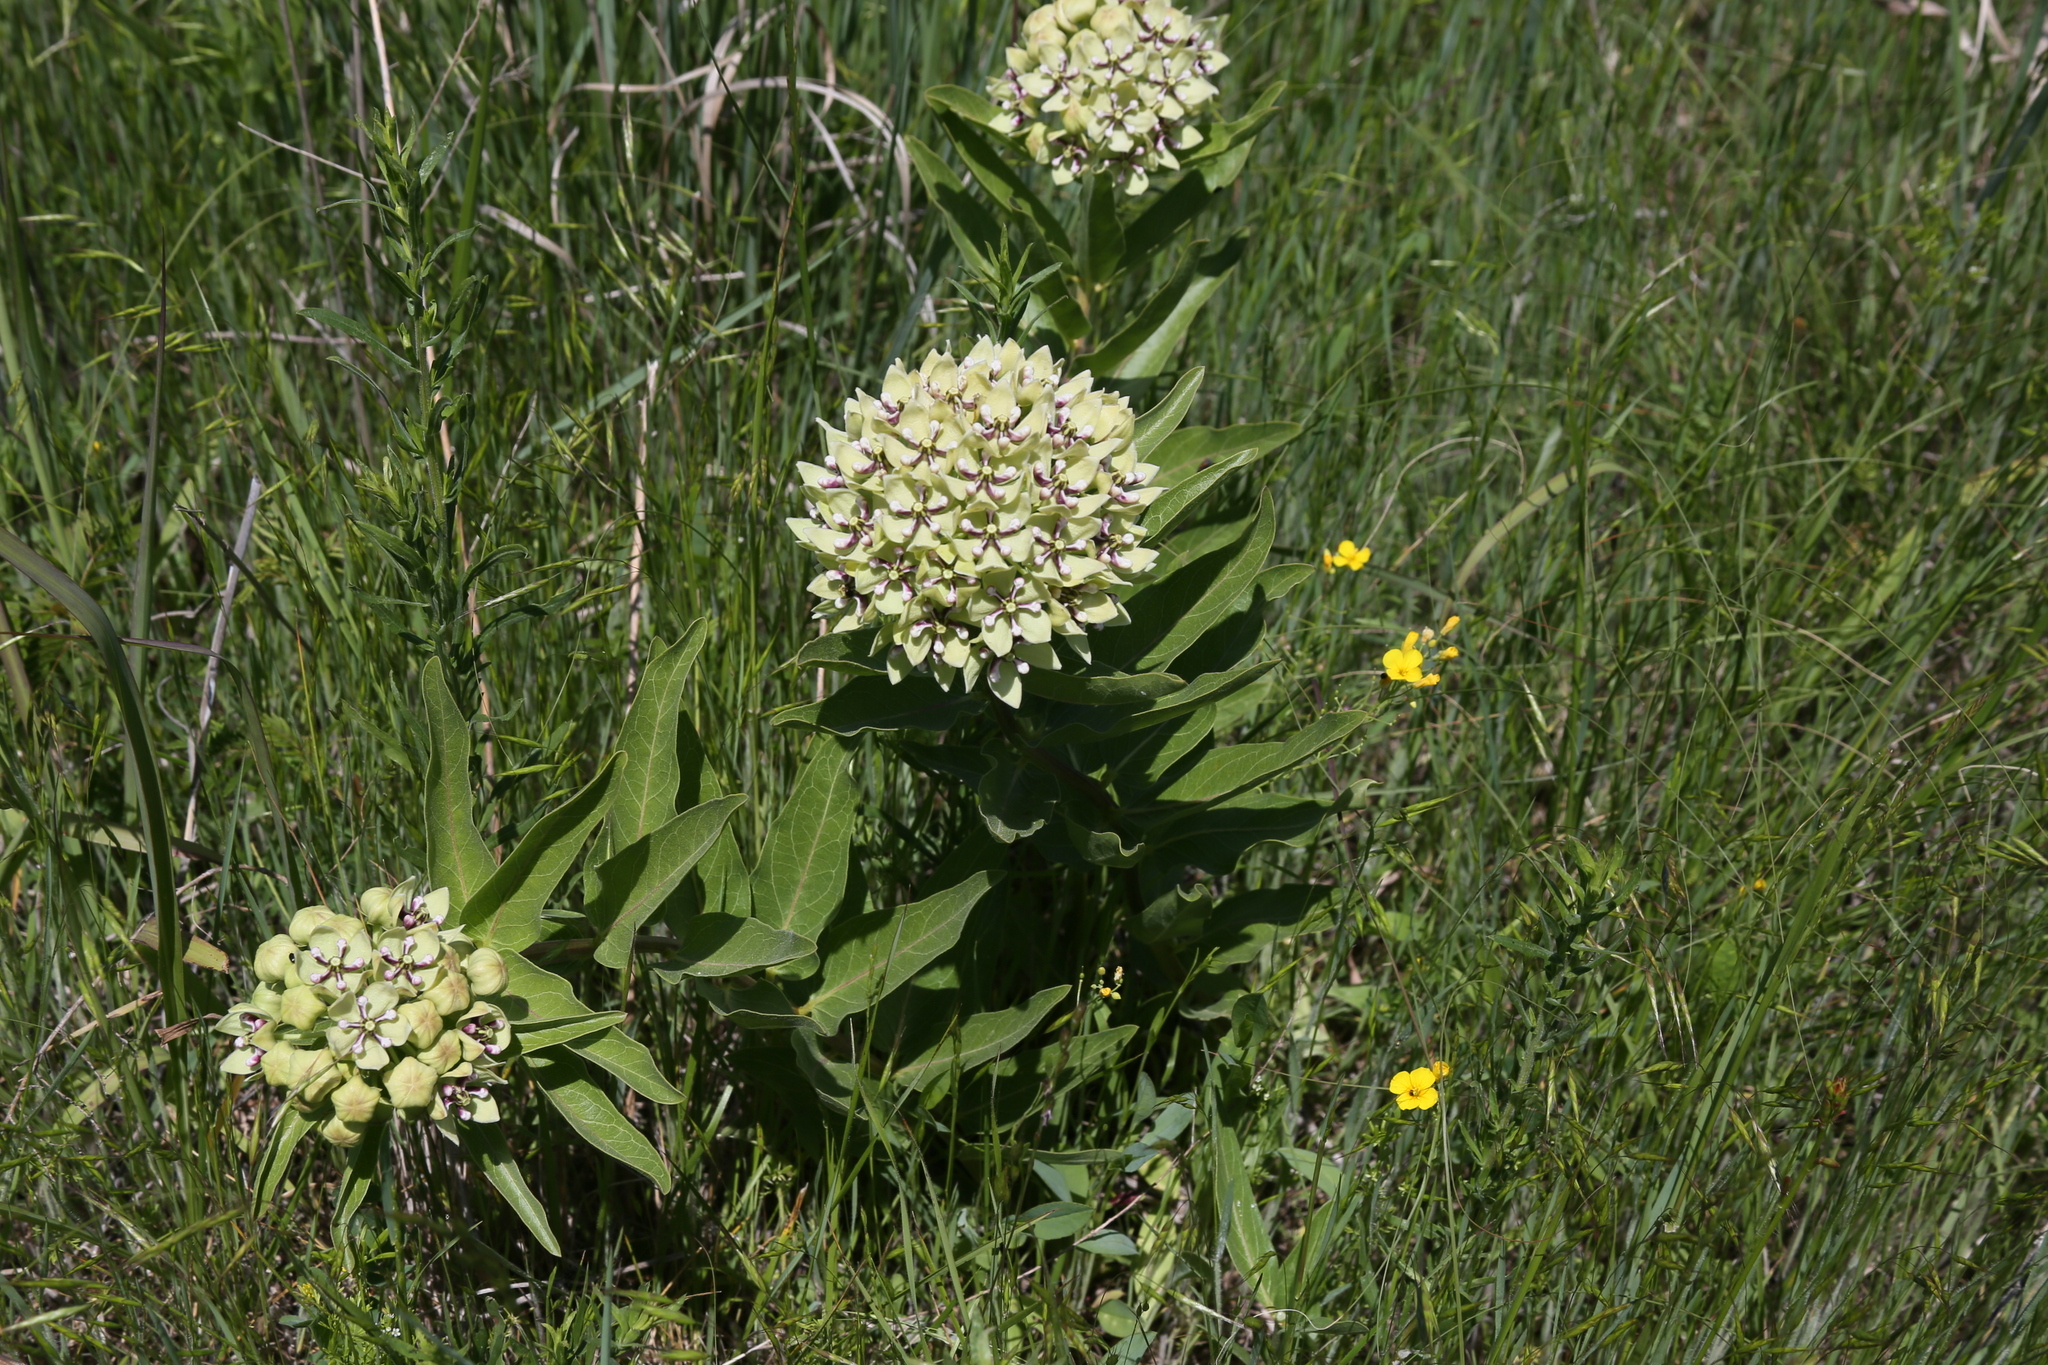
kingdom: Plantae
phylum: Tracheophyta
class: Magnoliopsida
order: Gentianales
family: Apocynaceae
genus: Asclepias
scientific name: Asclepias asperula
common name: Antelope horns
